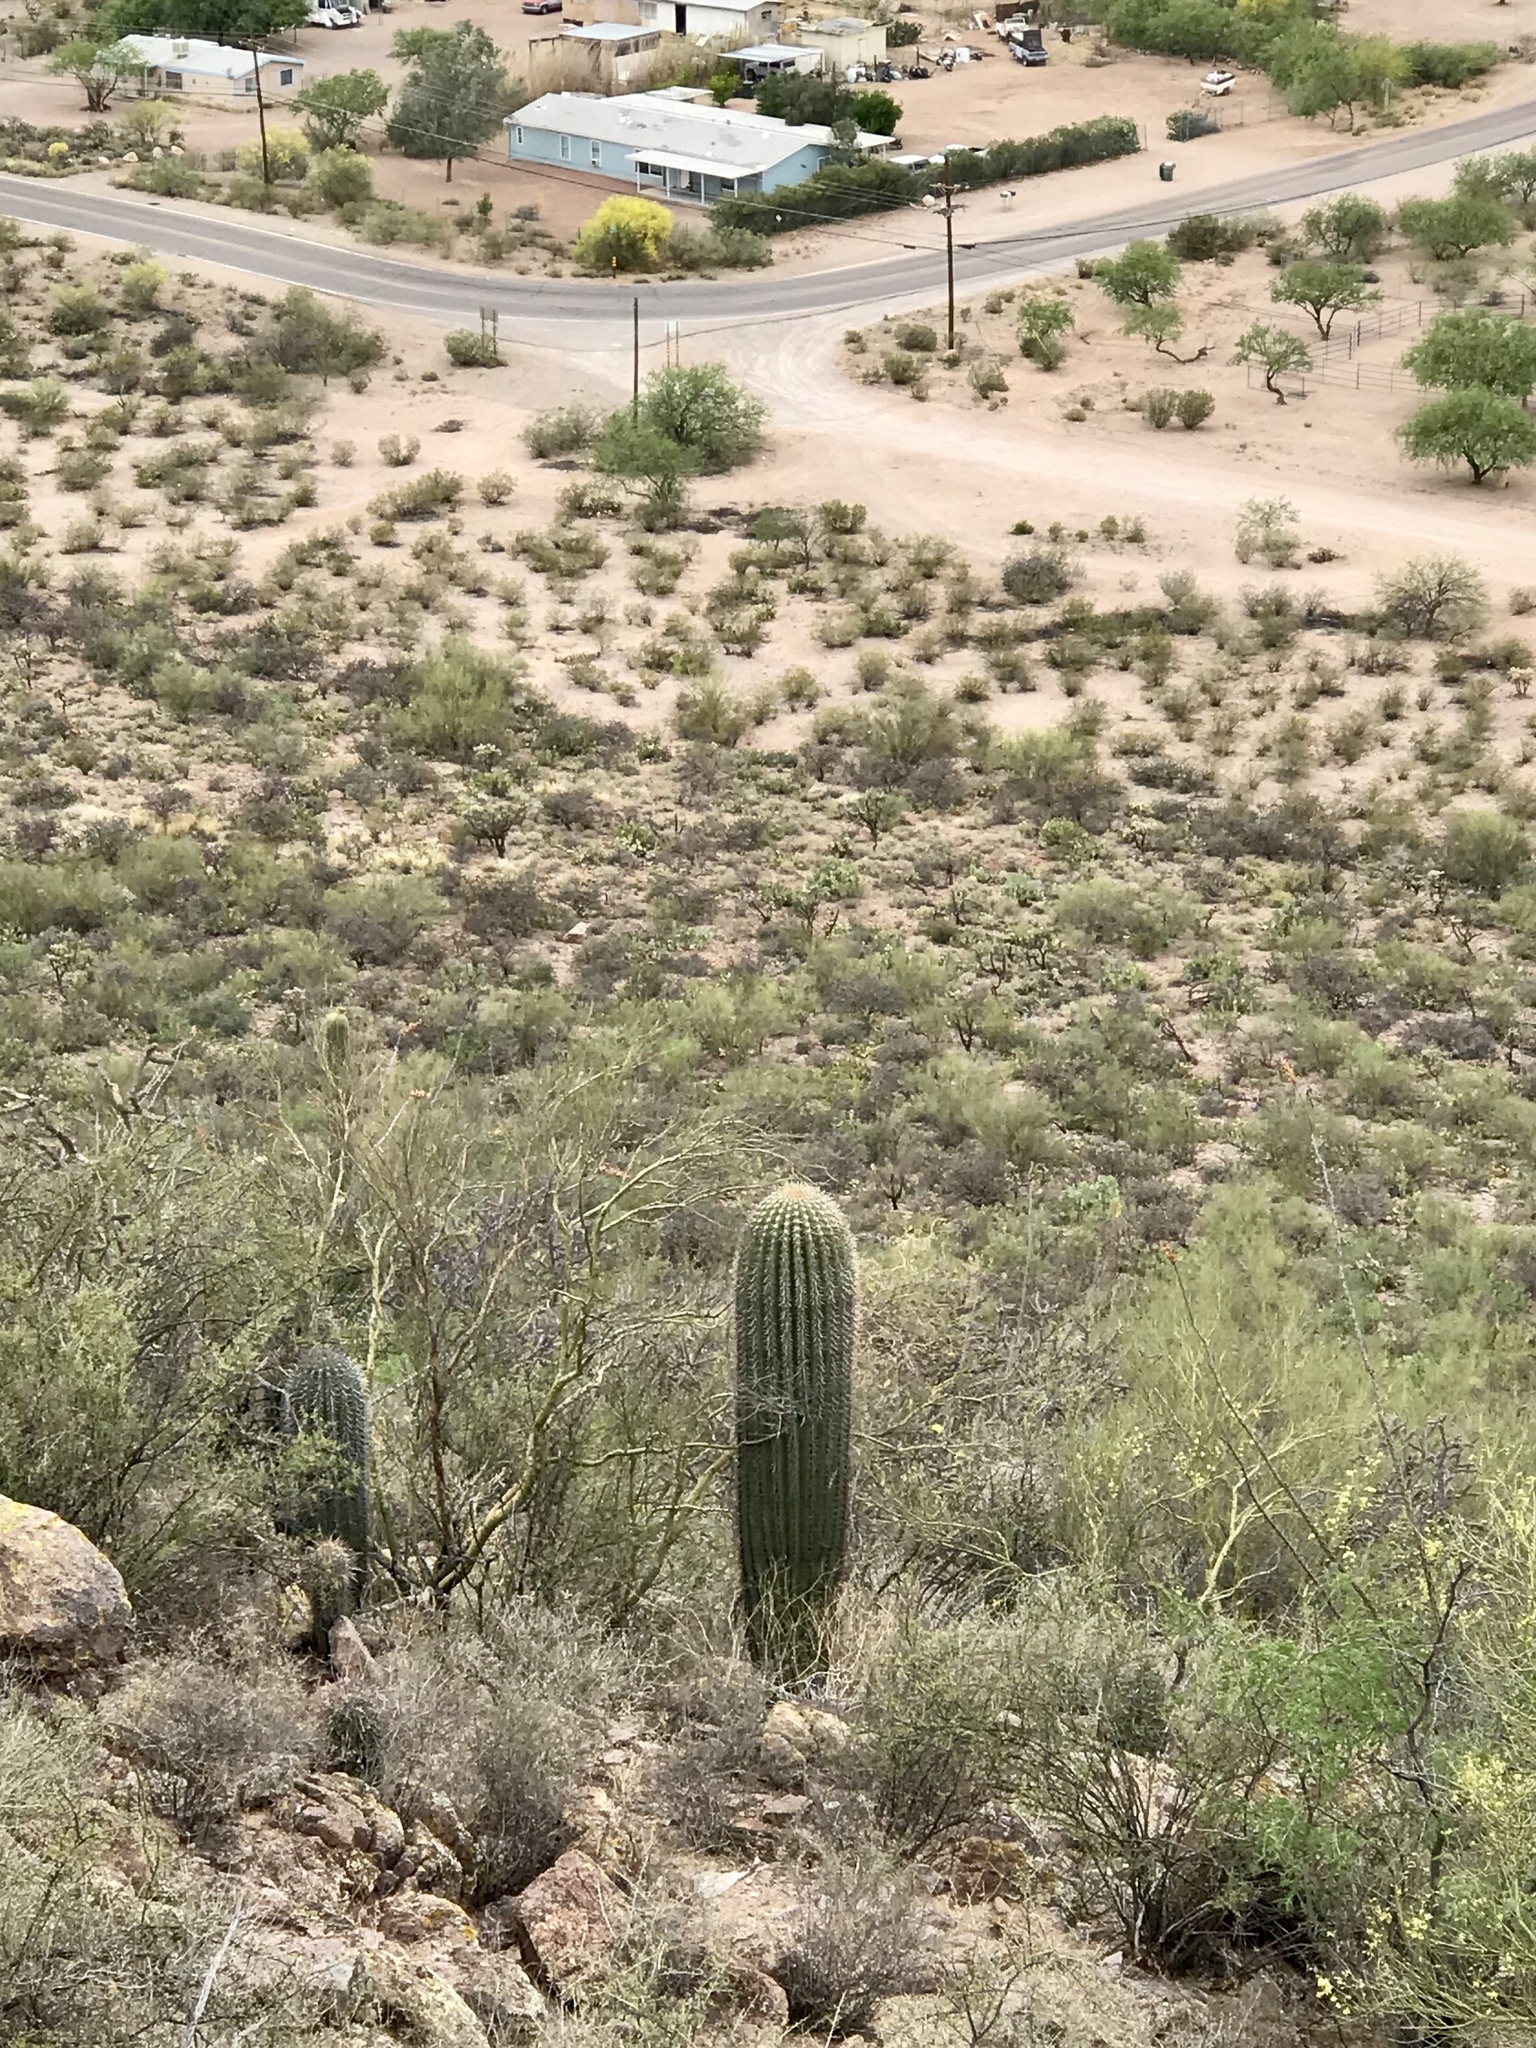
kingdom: Plantae
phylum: Tracheophyta
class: Magnoliopsida
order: Caryophyllales
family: Cactaceae
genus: Carnegiea
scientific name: Carnegiea gigantea
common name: Saguaro
